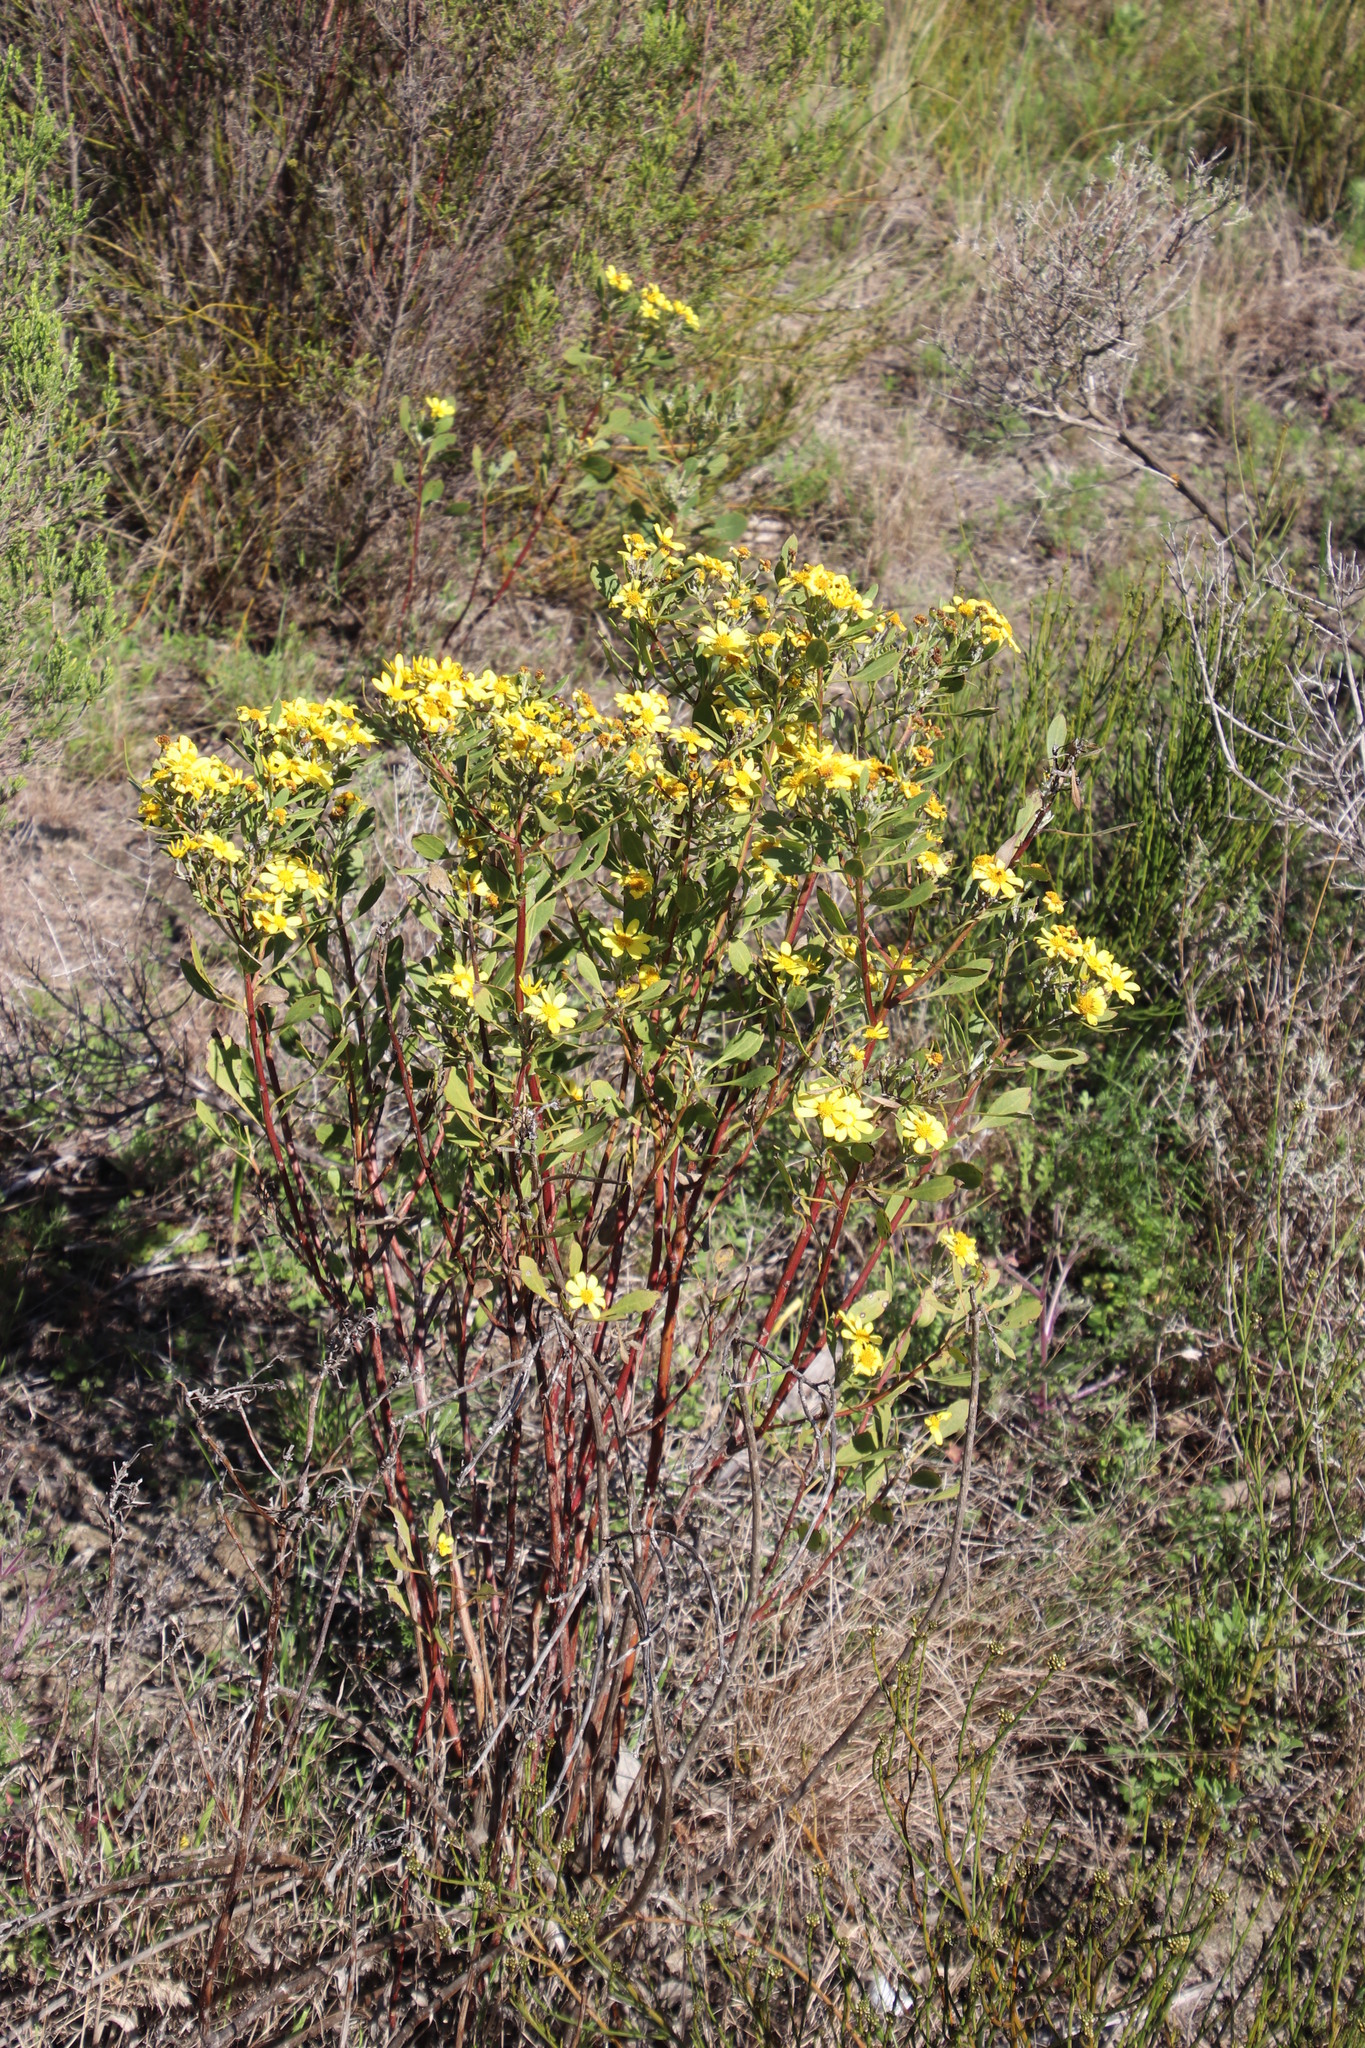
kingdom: Plantae
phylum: Tracheophyta
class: Magnoliopsida
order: Asterales
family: Asteraceae
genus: Osteospermum
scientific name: Osteospermum moniliferum
